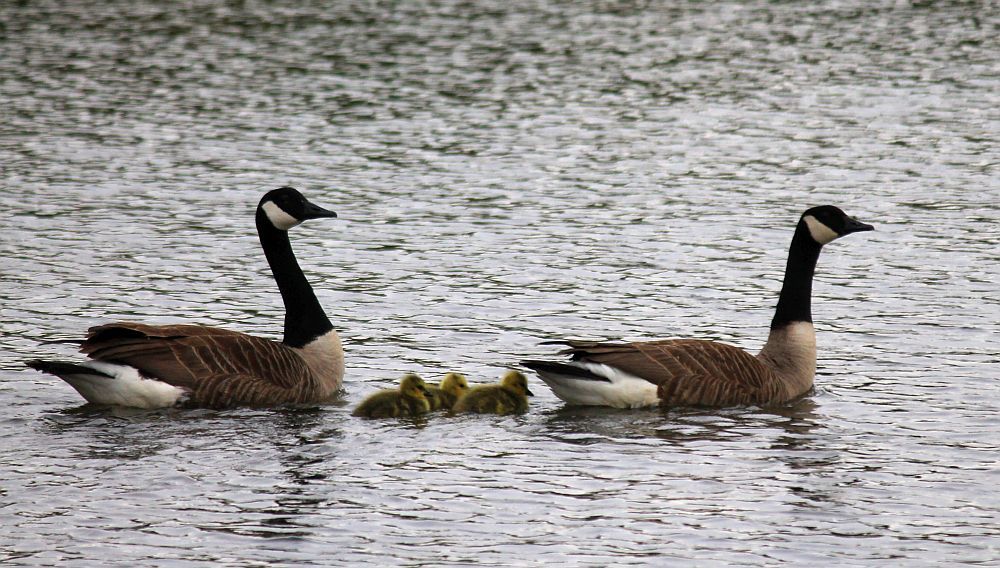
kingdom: Animalia
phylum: Chordata
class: Aves
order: Anseriformes
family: Anatidae
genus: Branta
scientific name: Branta canadensis
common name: Canada goose
